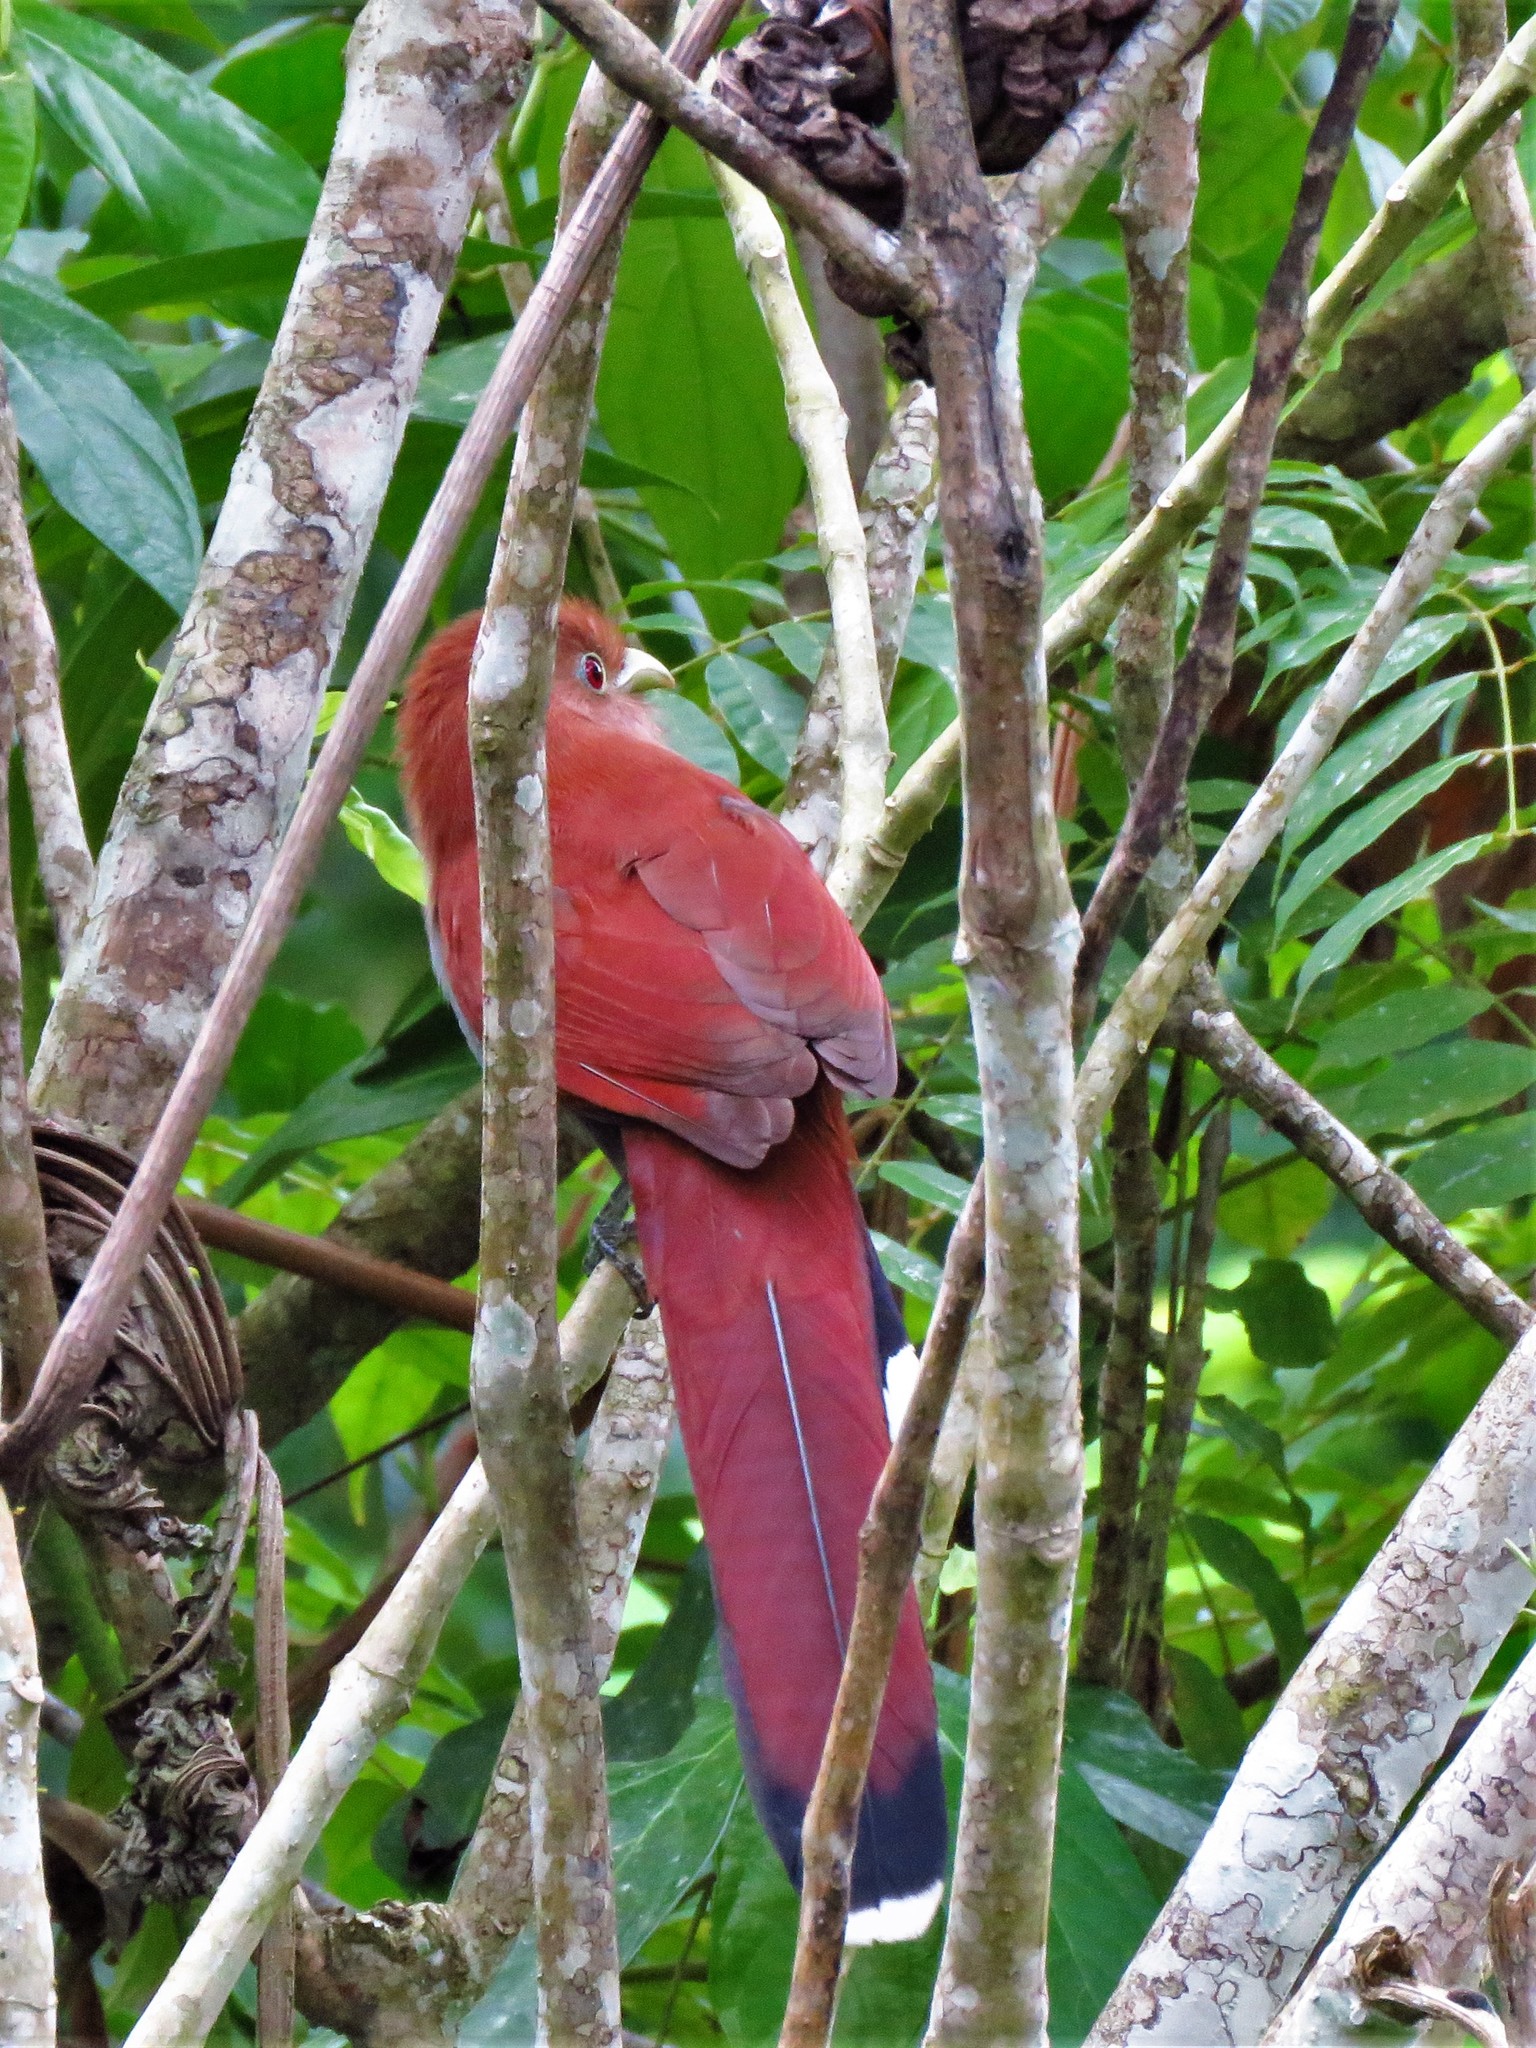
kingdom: Animalia
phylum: Chordata
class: Aves
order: Cuculiformes
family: Cuculidae
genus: Piaya
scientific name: Piaya cayana
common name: Squirrel cuckoo
